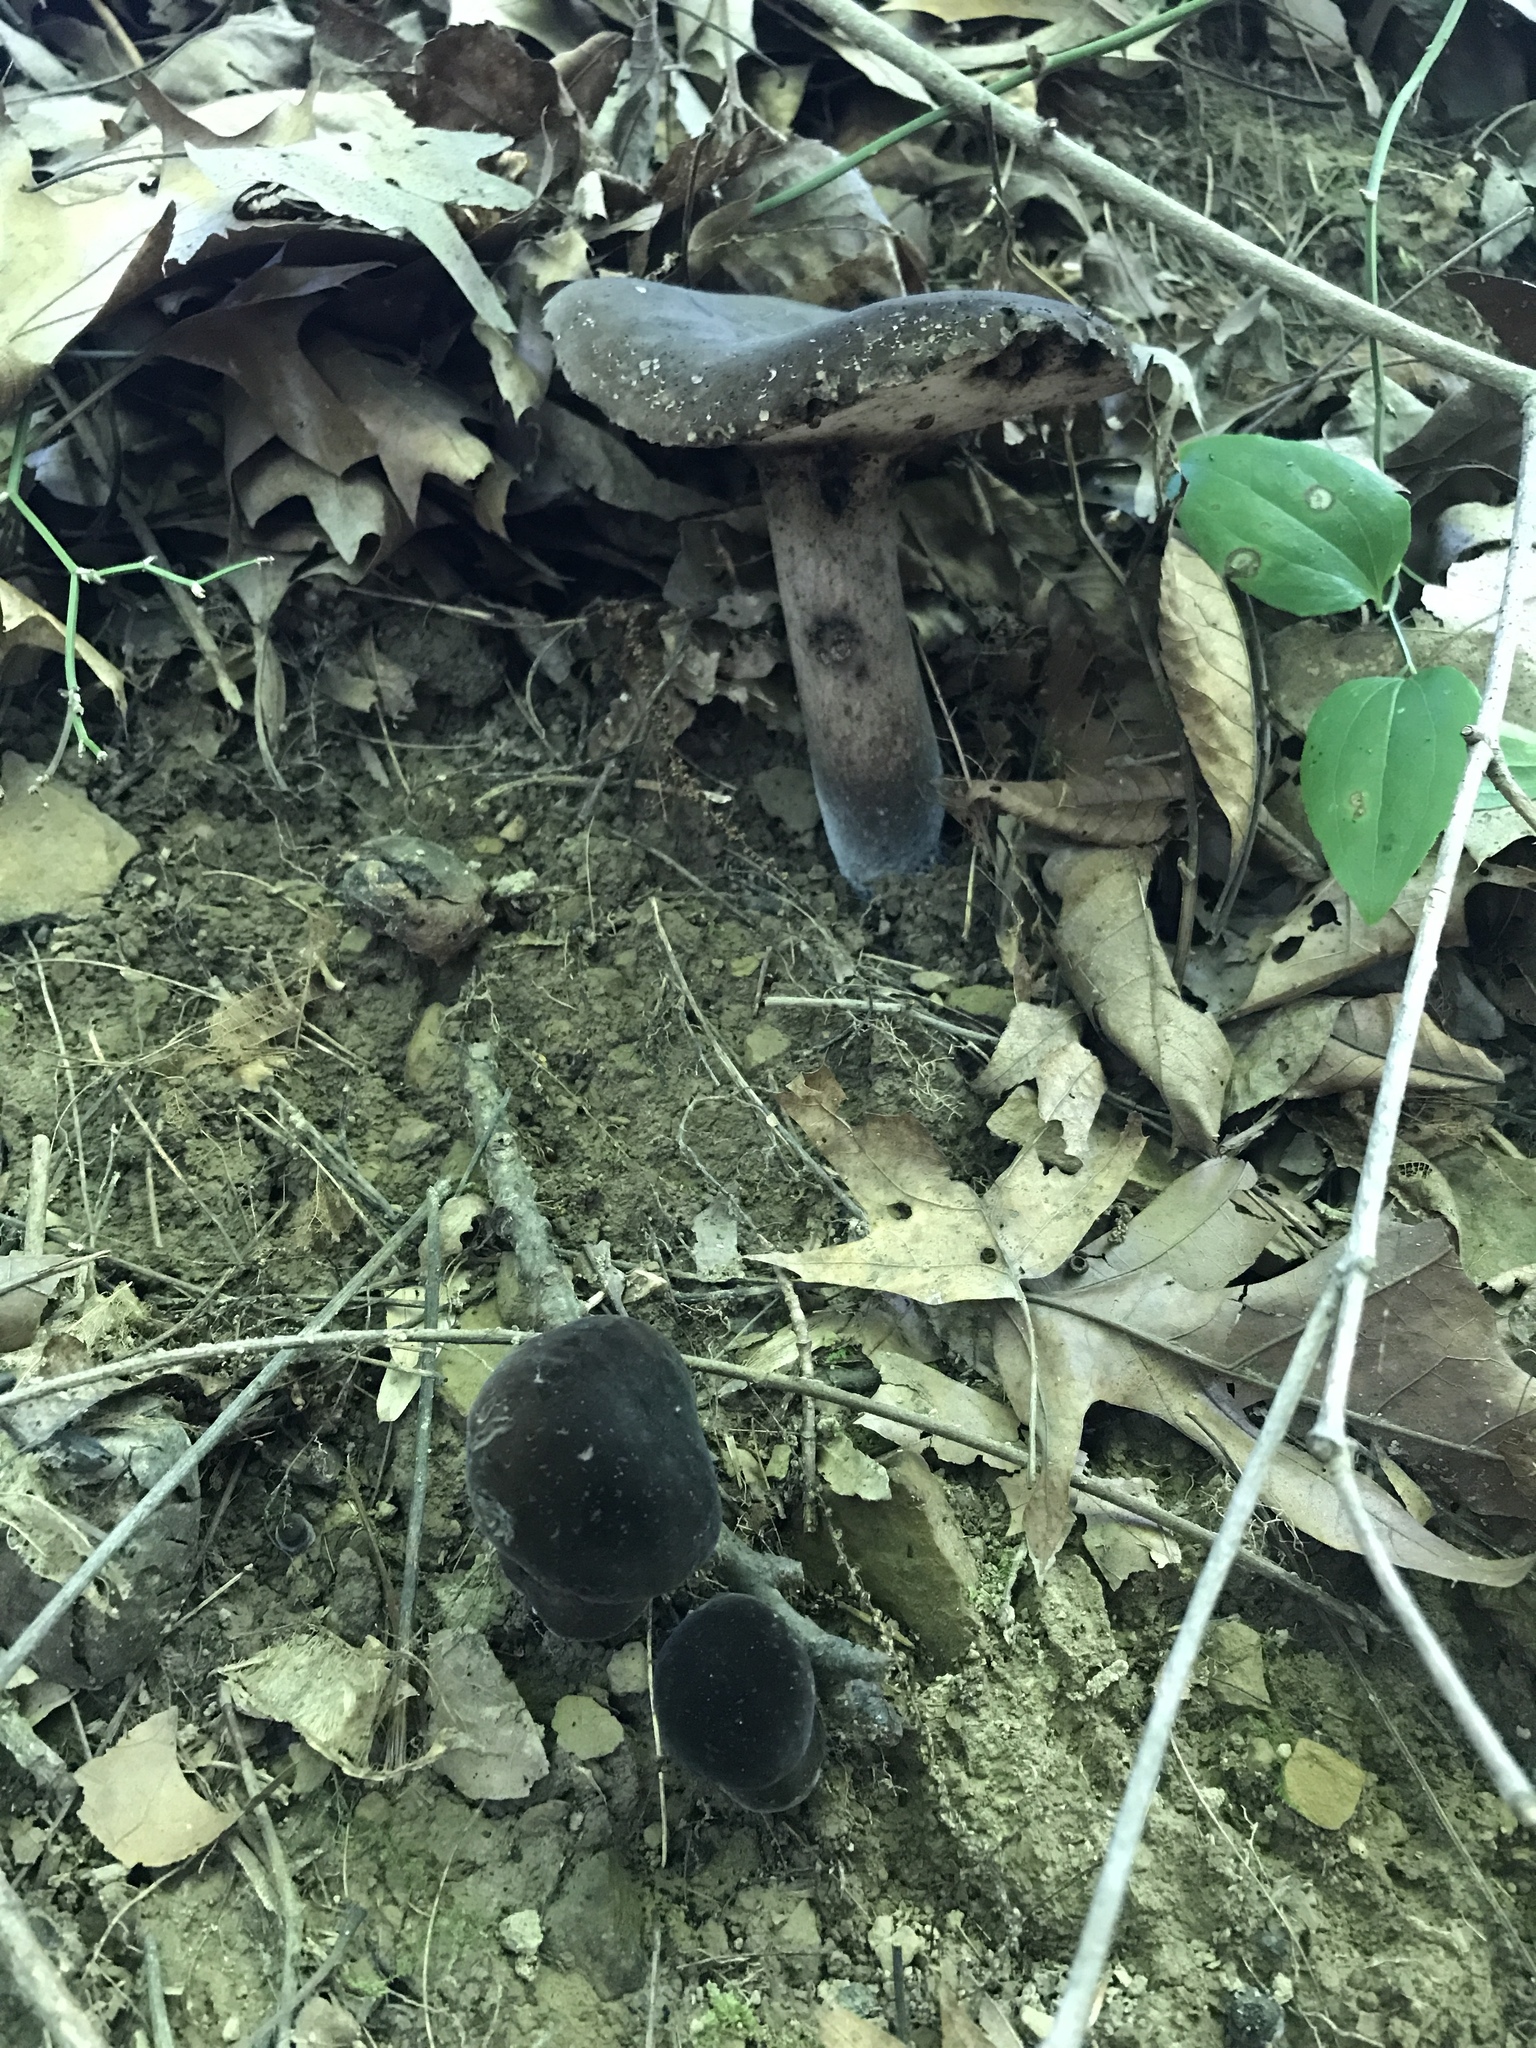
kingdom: Fungi
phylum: Basidiomycota
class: Agaricomycetes
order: Boletales
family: Boletaceae
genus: Tylopilus
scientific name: Tylopilus alboater
